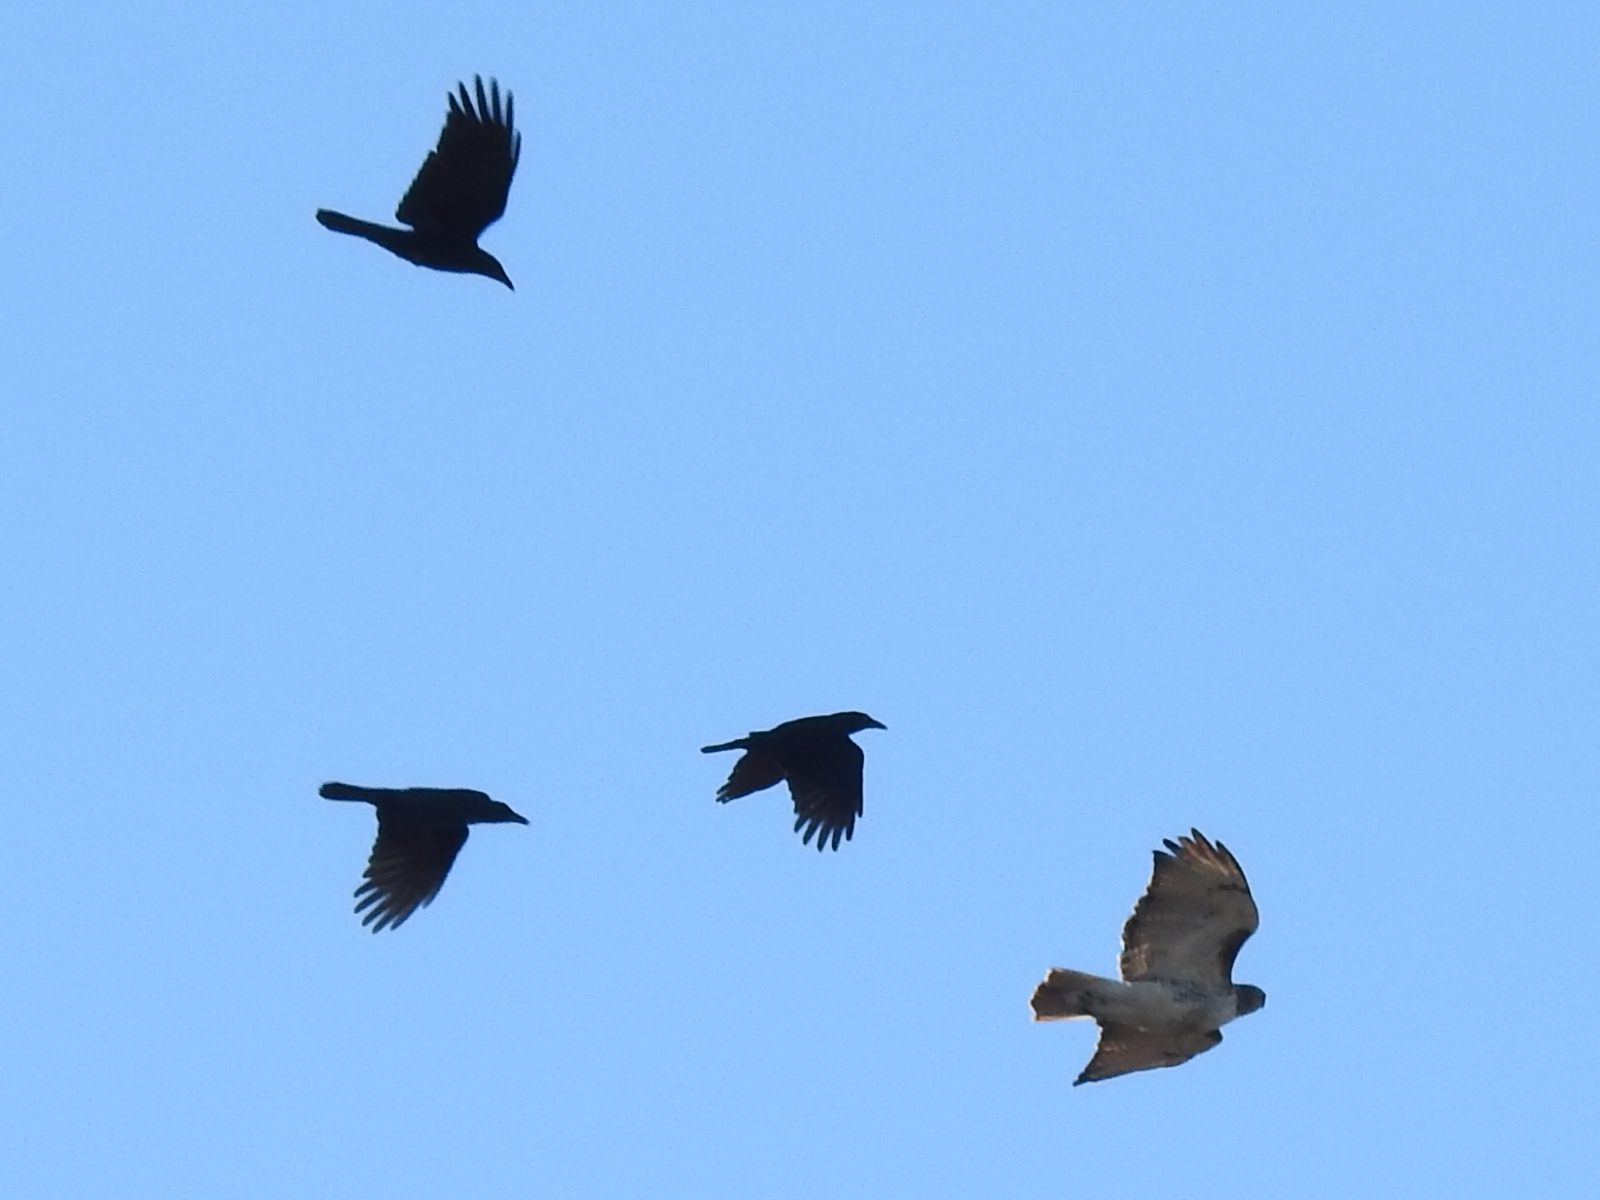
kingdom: Animalia
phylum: Chordata
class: Aves
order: Accipitriformes
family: Accipitridae
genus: Buteo
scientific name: Buteo jamaicensis
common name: Red-tailed hawk
